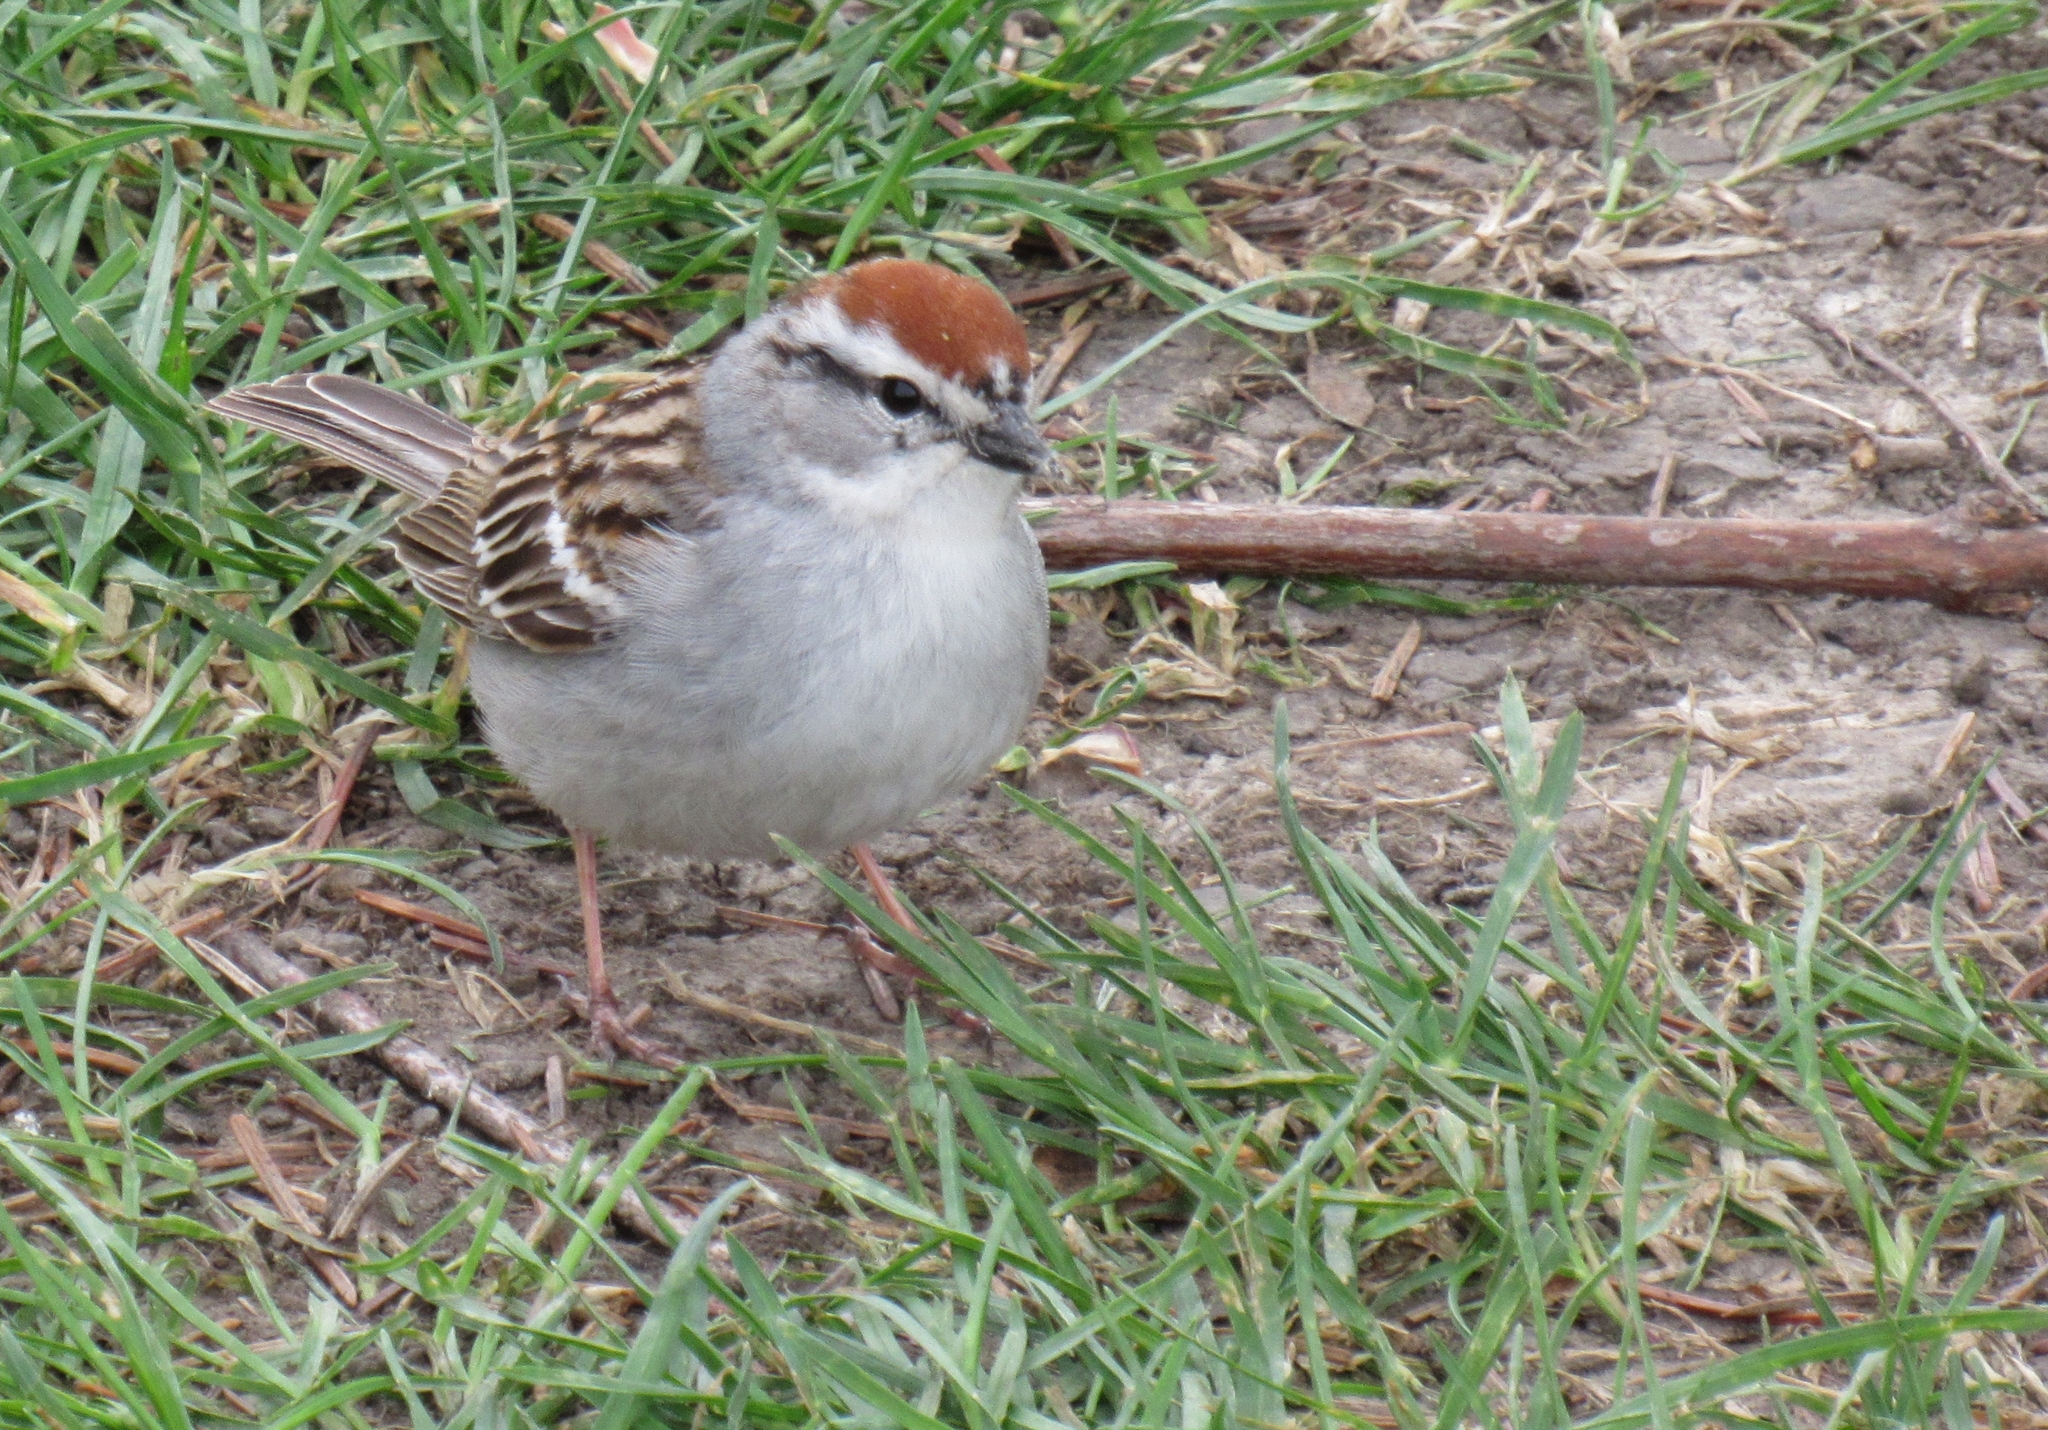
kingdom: Animalia
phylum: Chordata
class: Aves
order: Passeriformes
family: Passerellidae
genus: Spizella
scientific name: Spizella passerina
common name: Chipping sparrow
